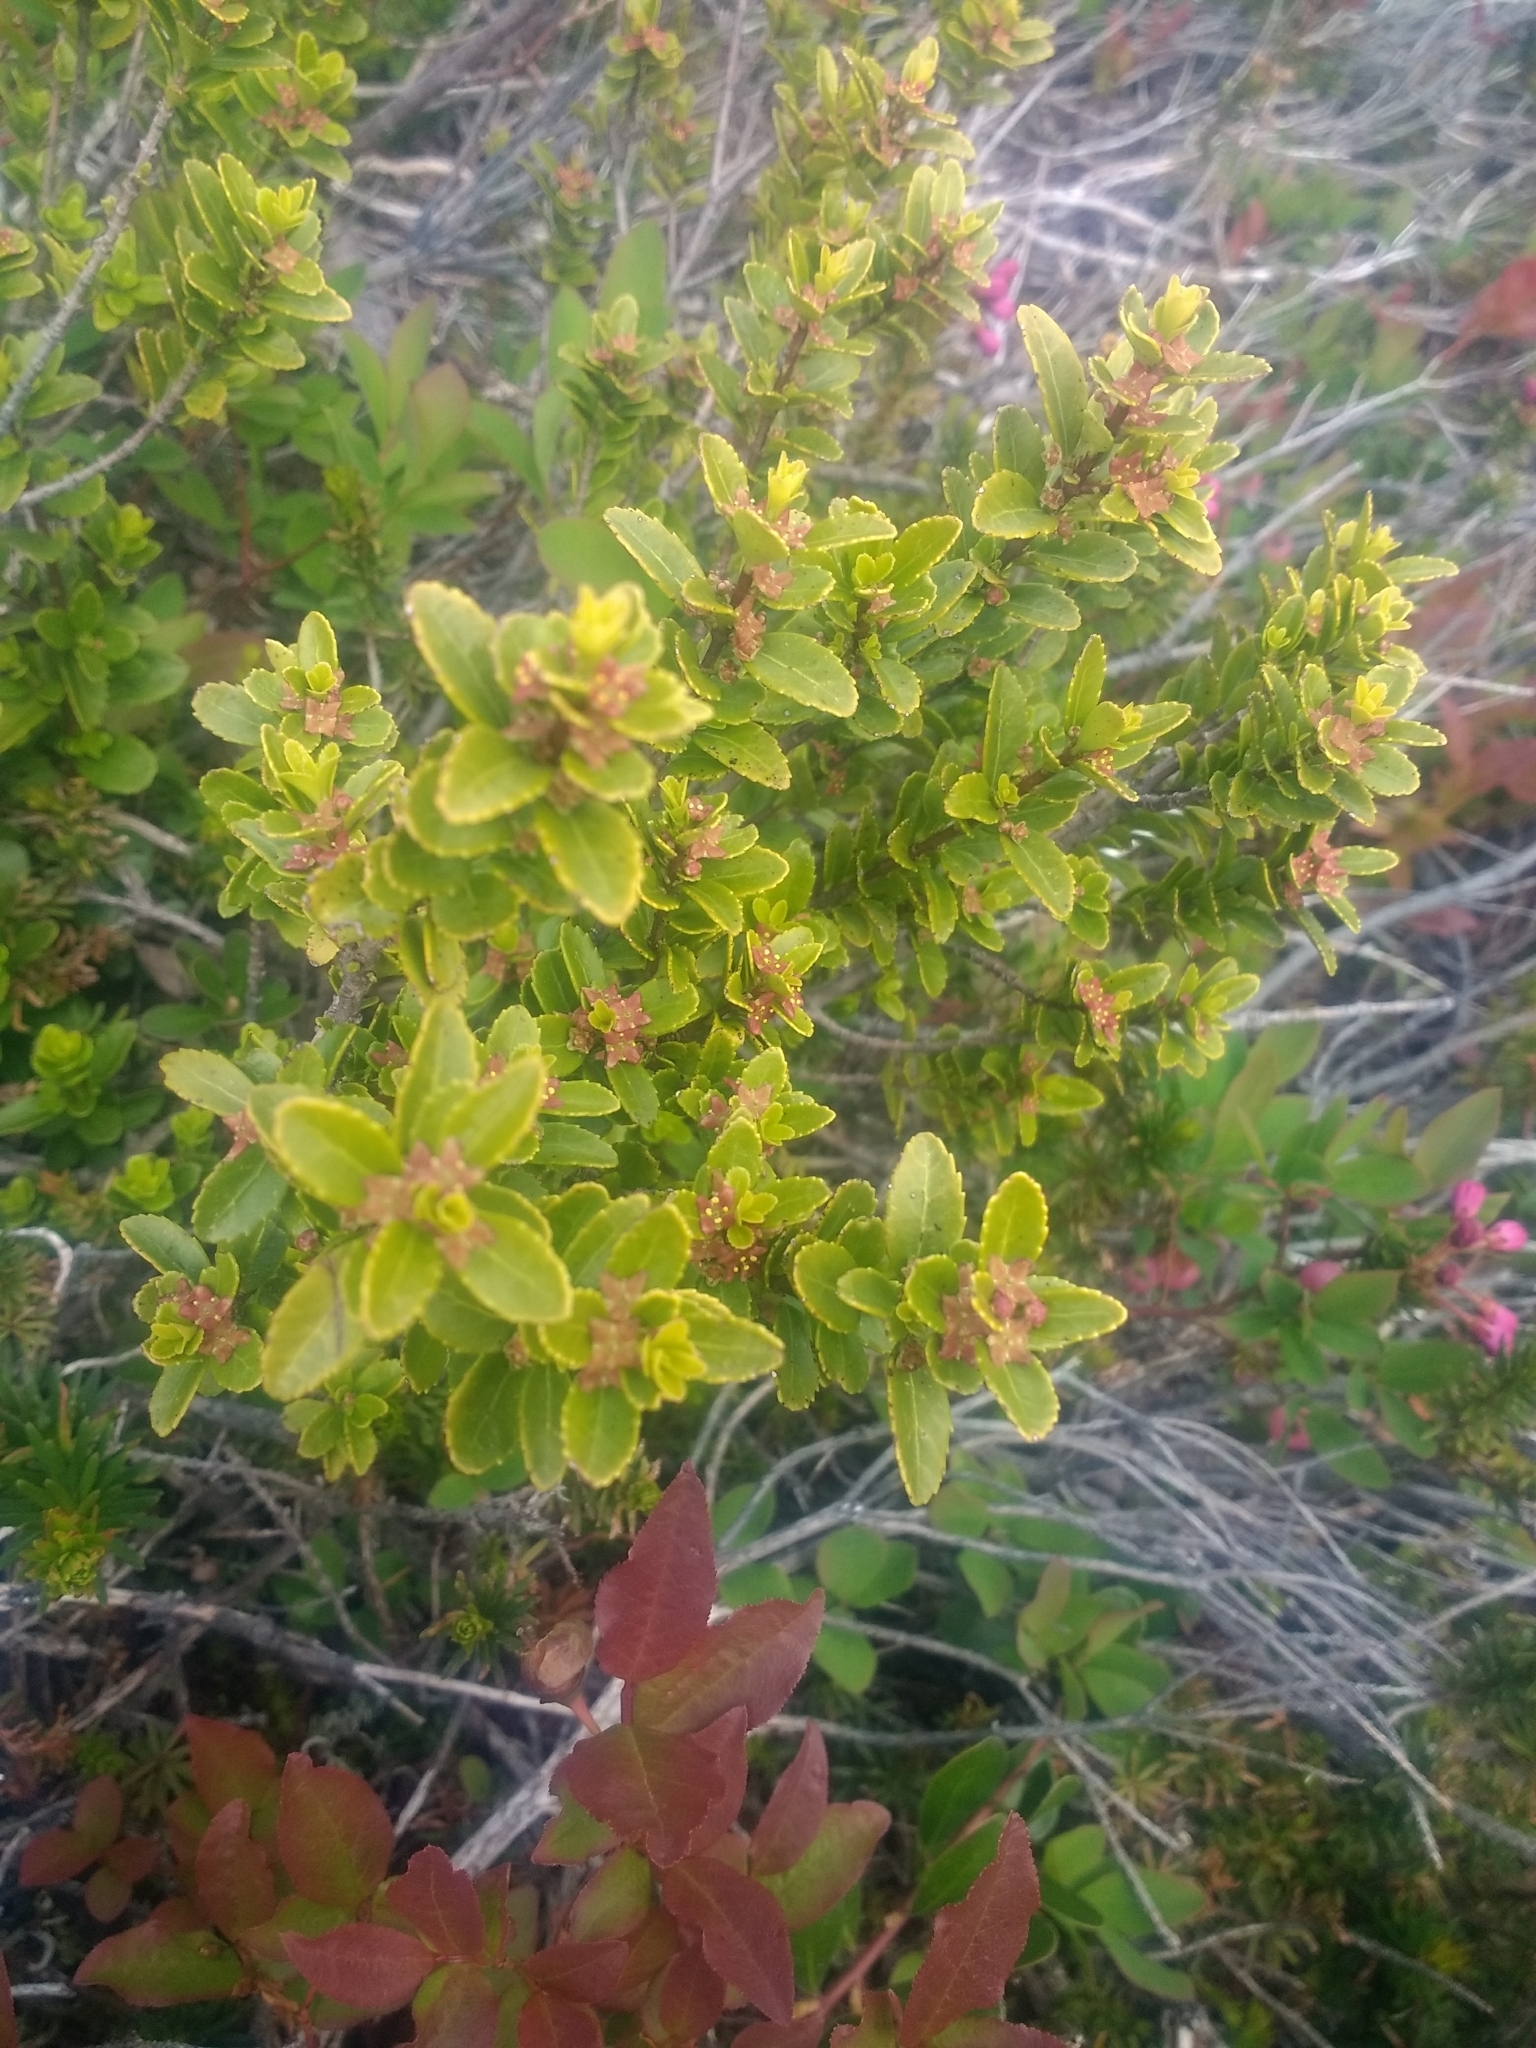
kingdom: Plantae
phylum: Tracheophyta
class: Magnoliopsida
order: Celastrales
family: Celastraceae
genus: Paxistima
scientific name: Paxistima myrsinites
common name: Mountain-lover
